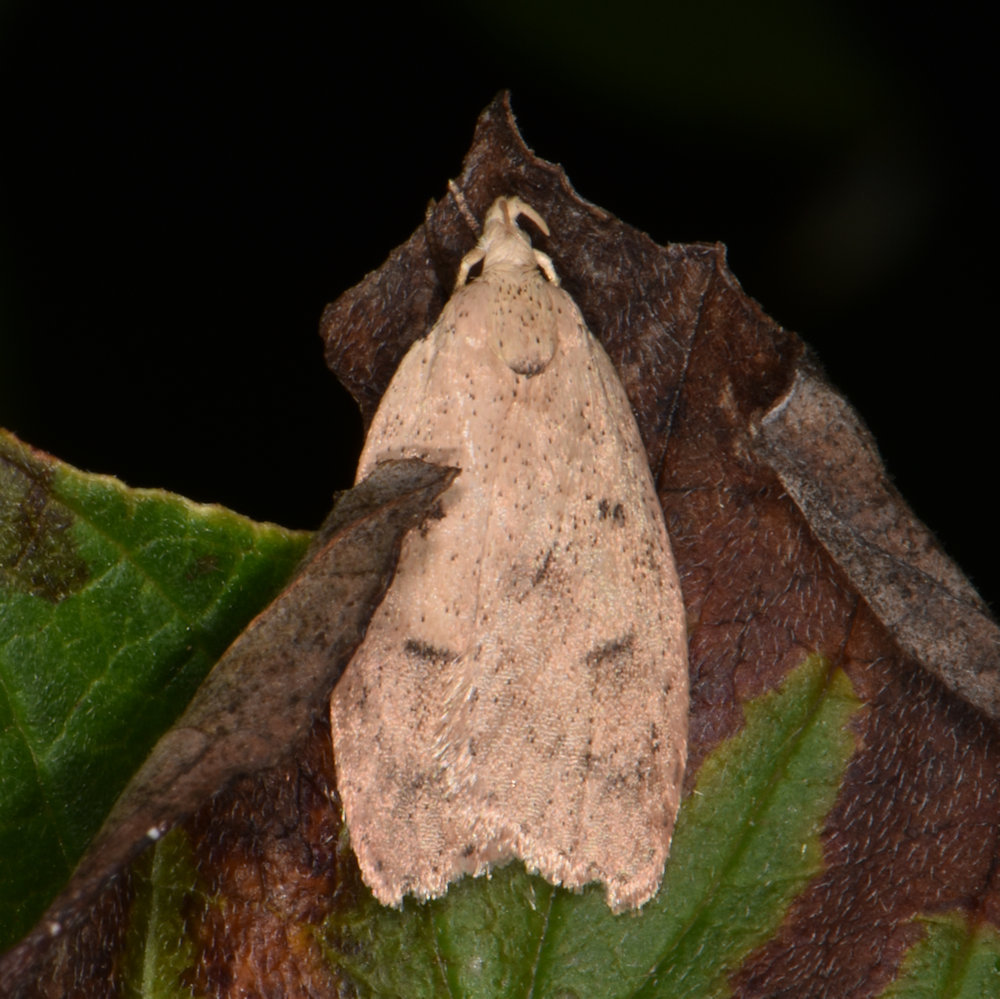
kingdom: Animalia
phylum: Arthropoda
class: Insecta
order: Lepidoptera
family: Peleopodidae
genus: Machimia
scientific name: Machimia tentoriferella
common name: Gold-striped leaftier moth
